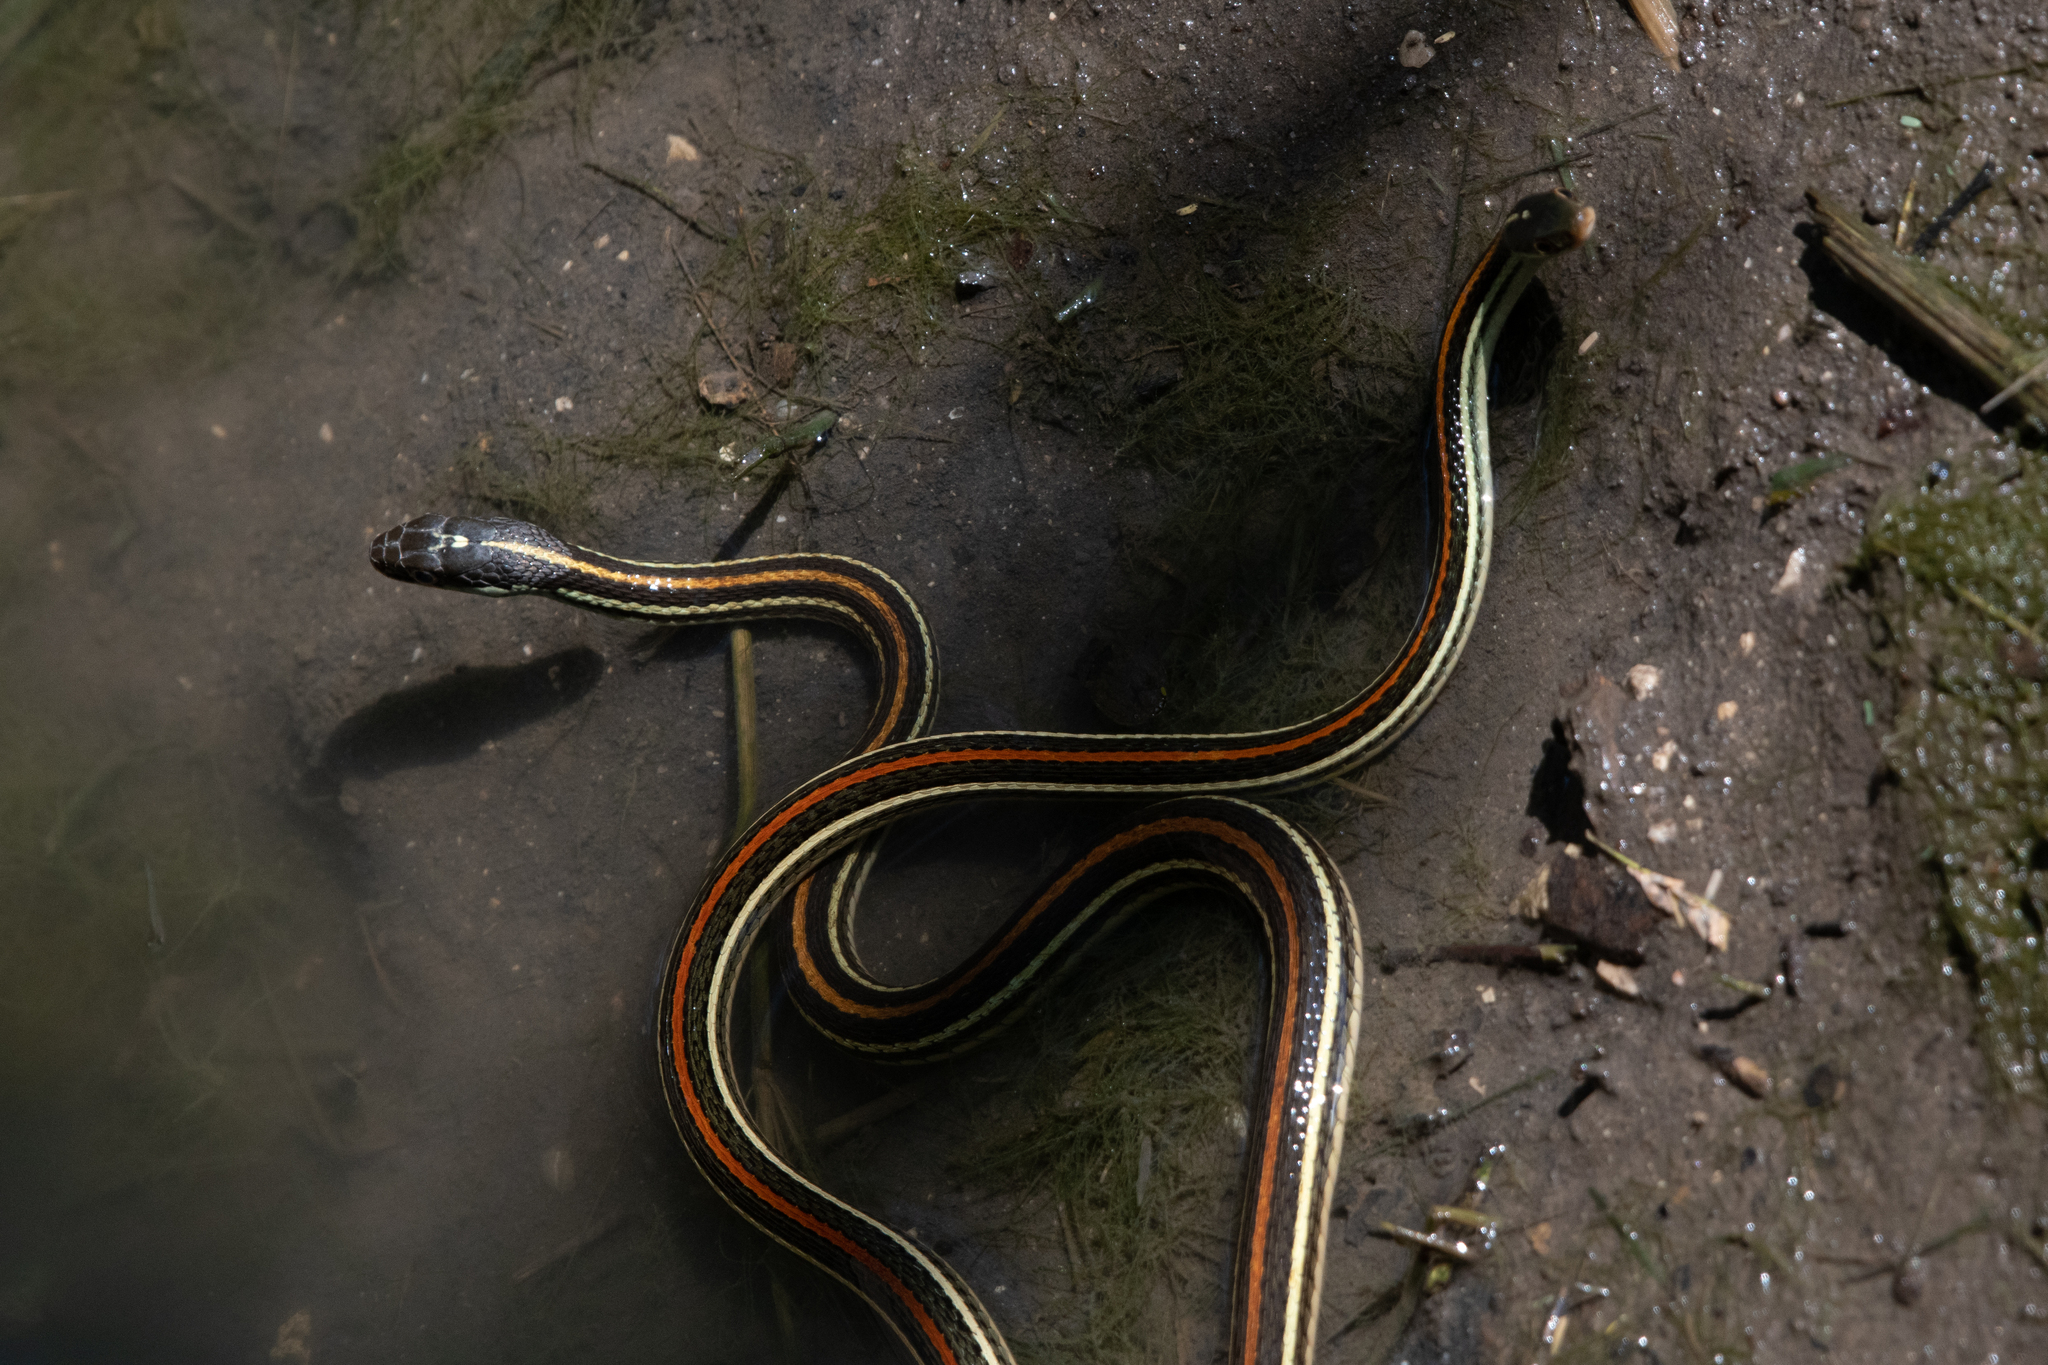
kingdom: Animalia
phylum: Chordata
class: Squamata
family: Colubridae
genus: Thamnophis
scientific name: Thamnophis proximus
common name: Western ribbon snake
